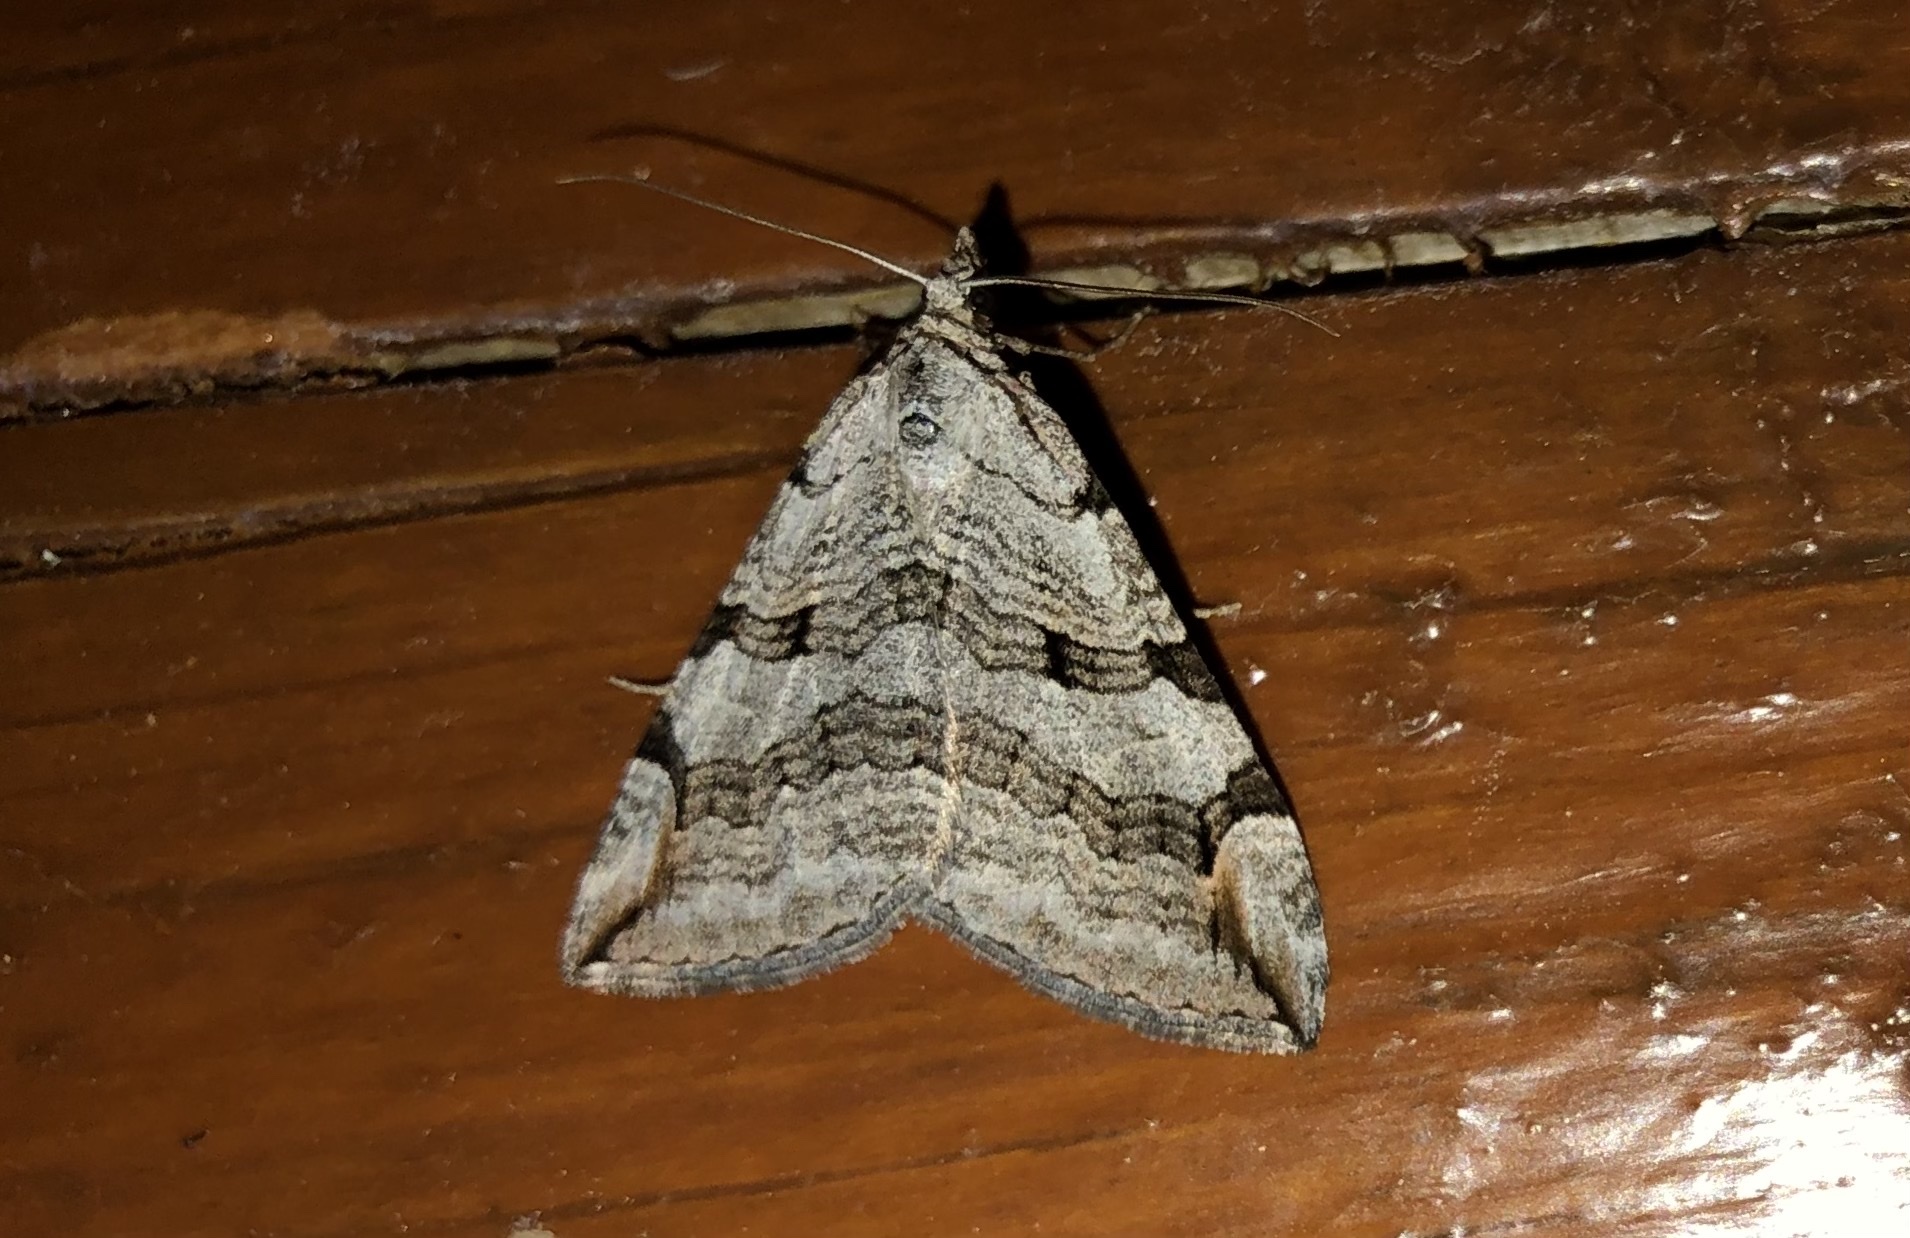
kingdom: Animalia
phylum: Arthropoda
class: Insecta
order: Lepidoptera
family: Geometridae
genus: Aplocera
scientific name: Aplocera plagiata
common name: Treble-bar
